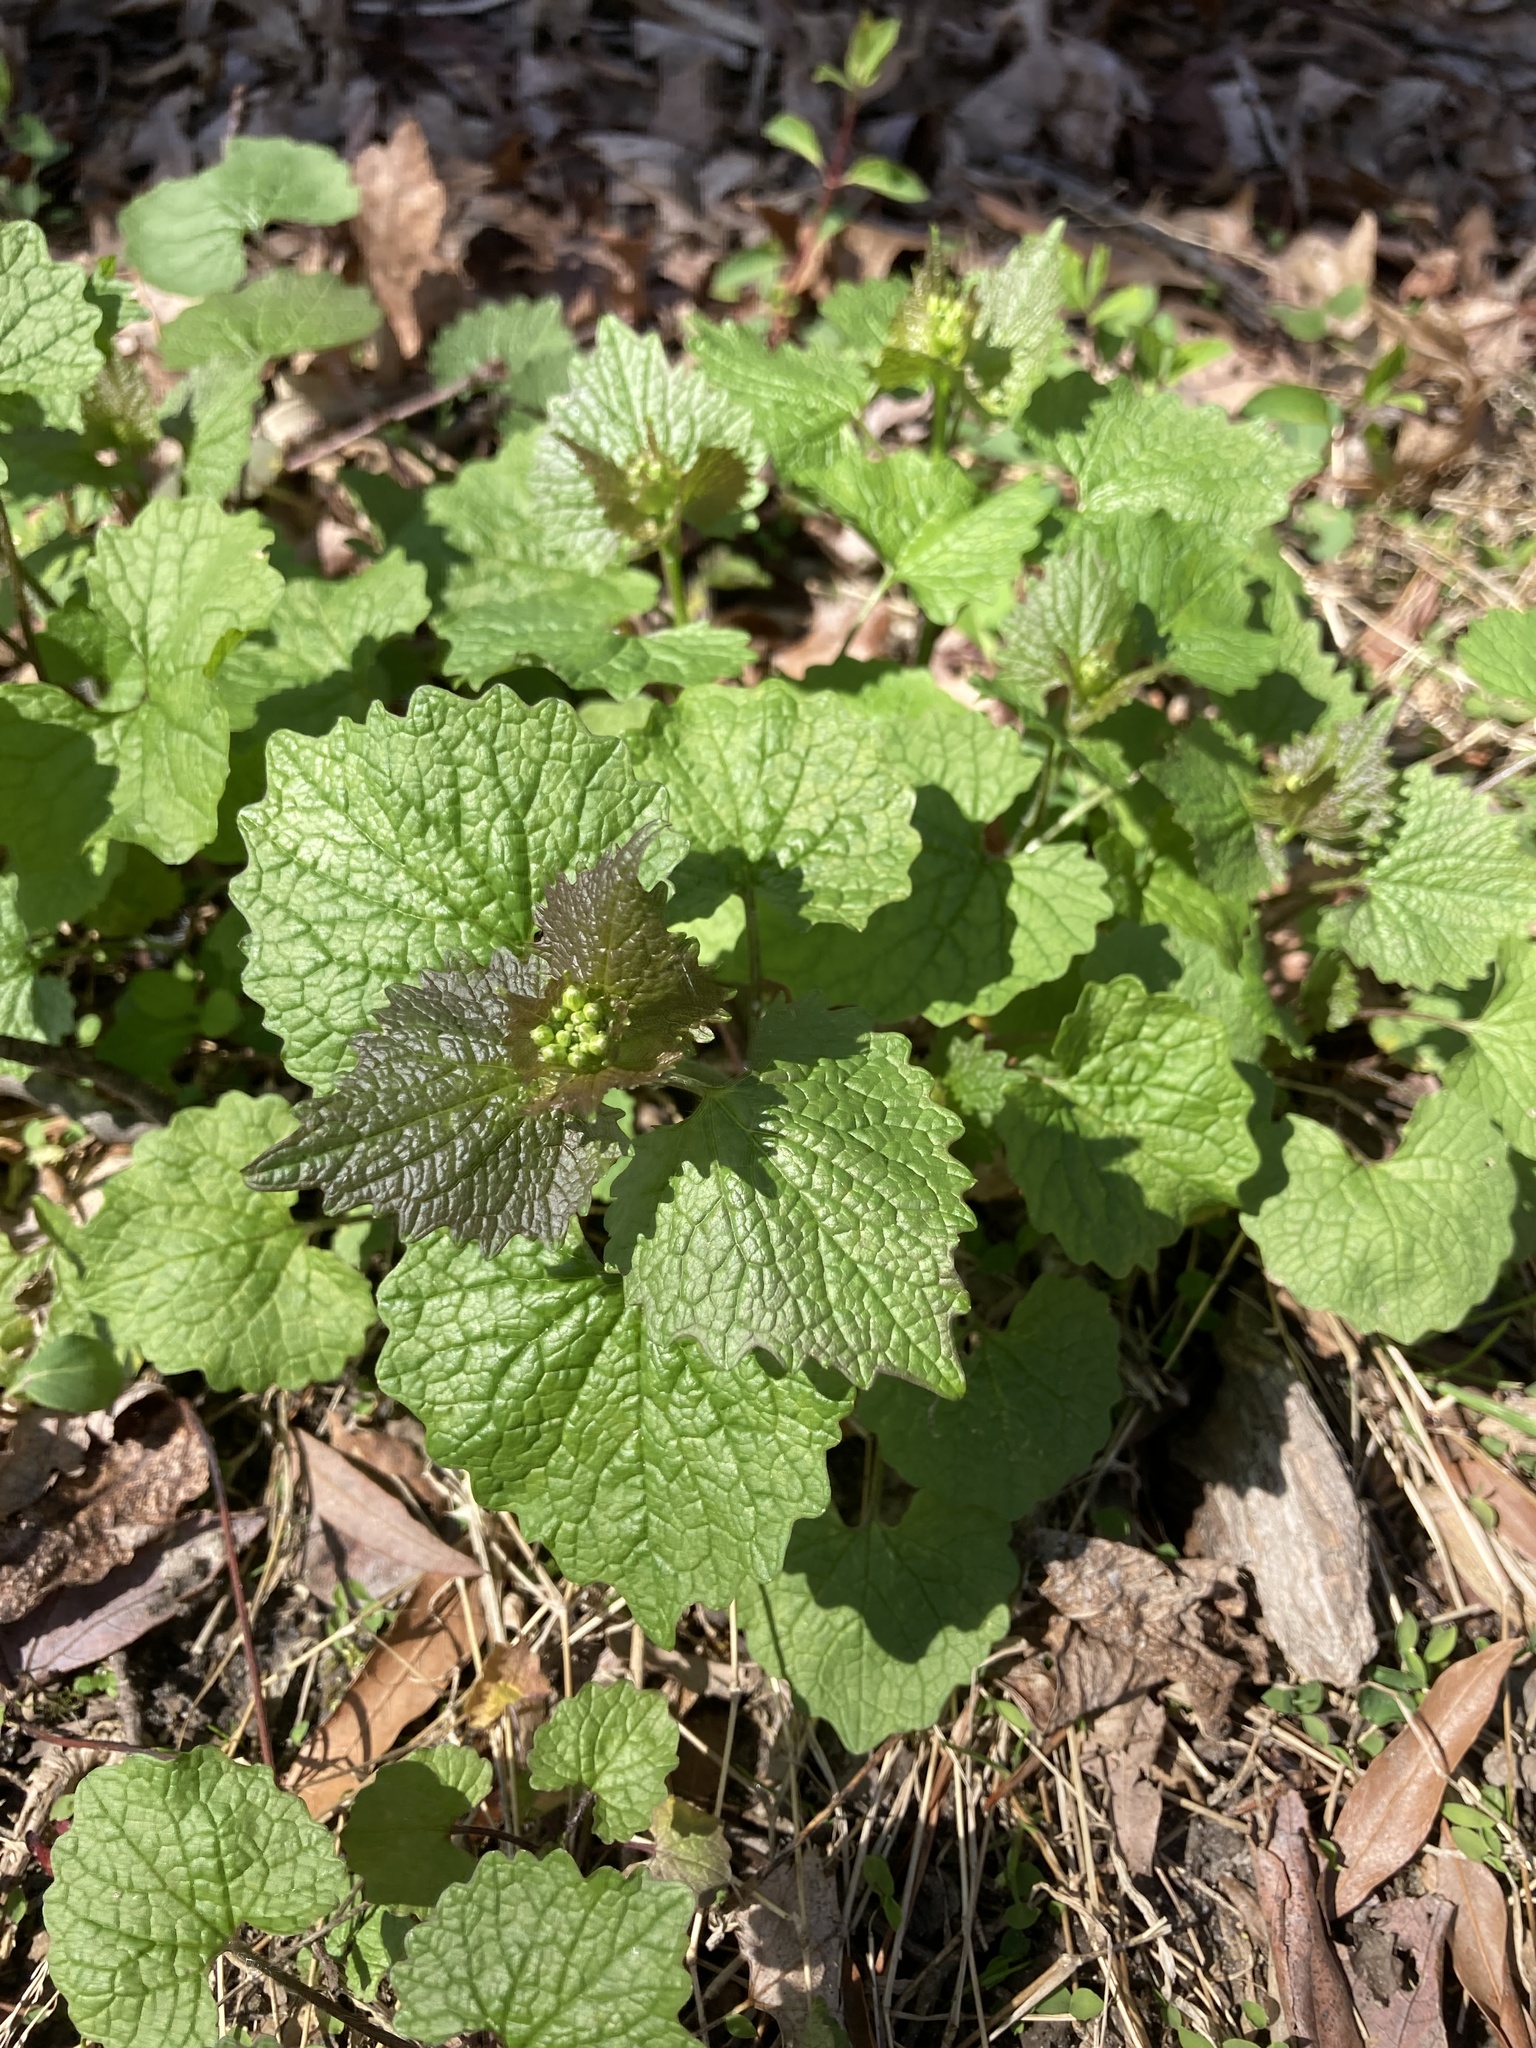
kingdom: Plantae
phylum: Tracheophyta
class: Magnoliopsida
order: Brassicales
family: Brassicaceae
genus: Alliaria
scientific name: Alliaria petiolata
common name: Garlic mustard
